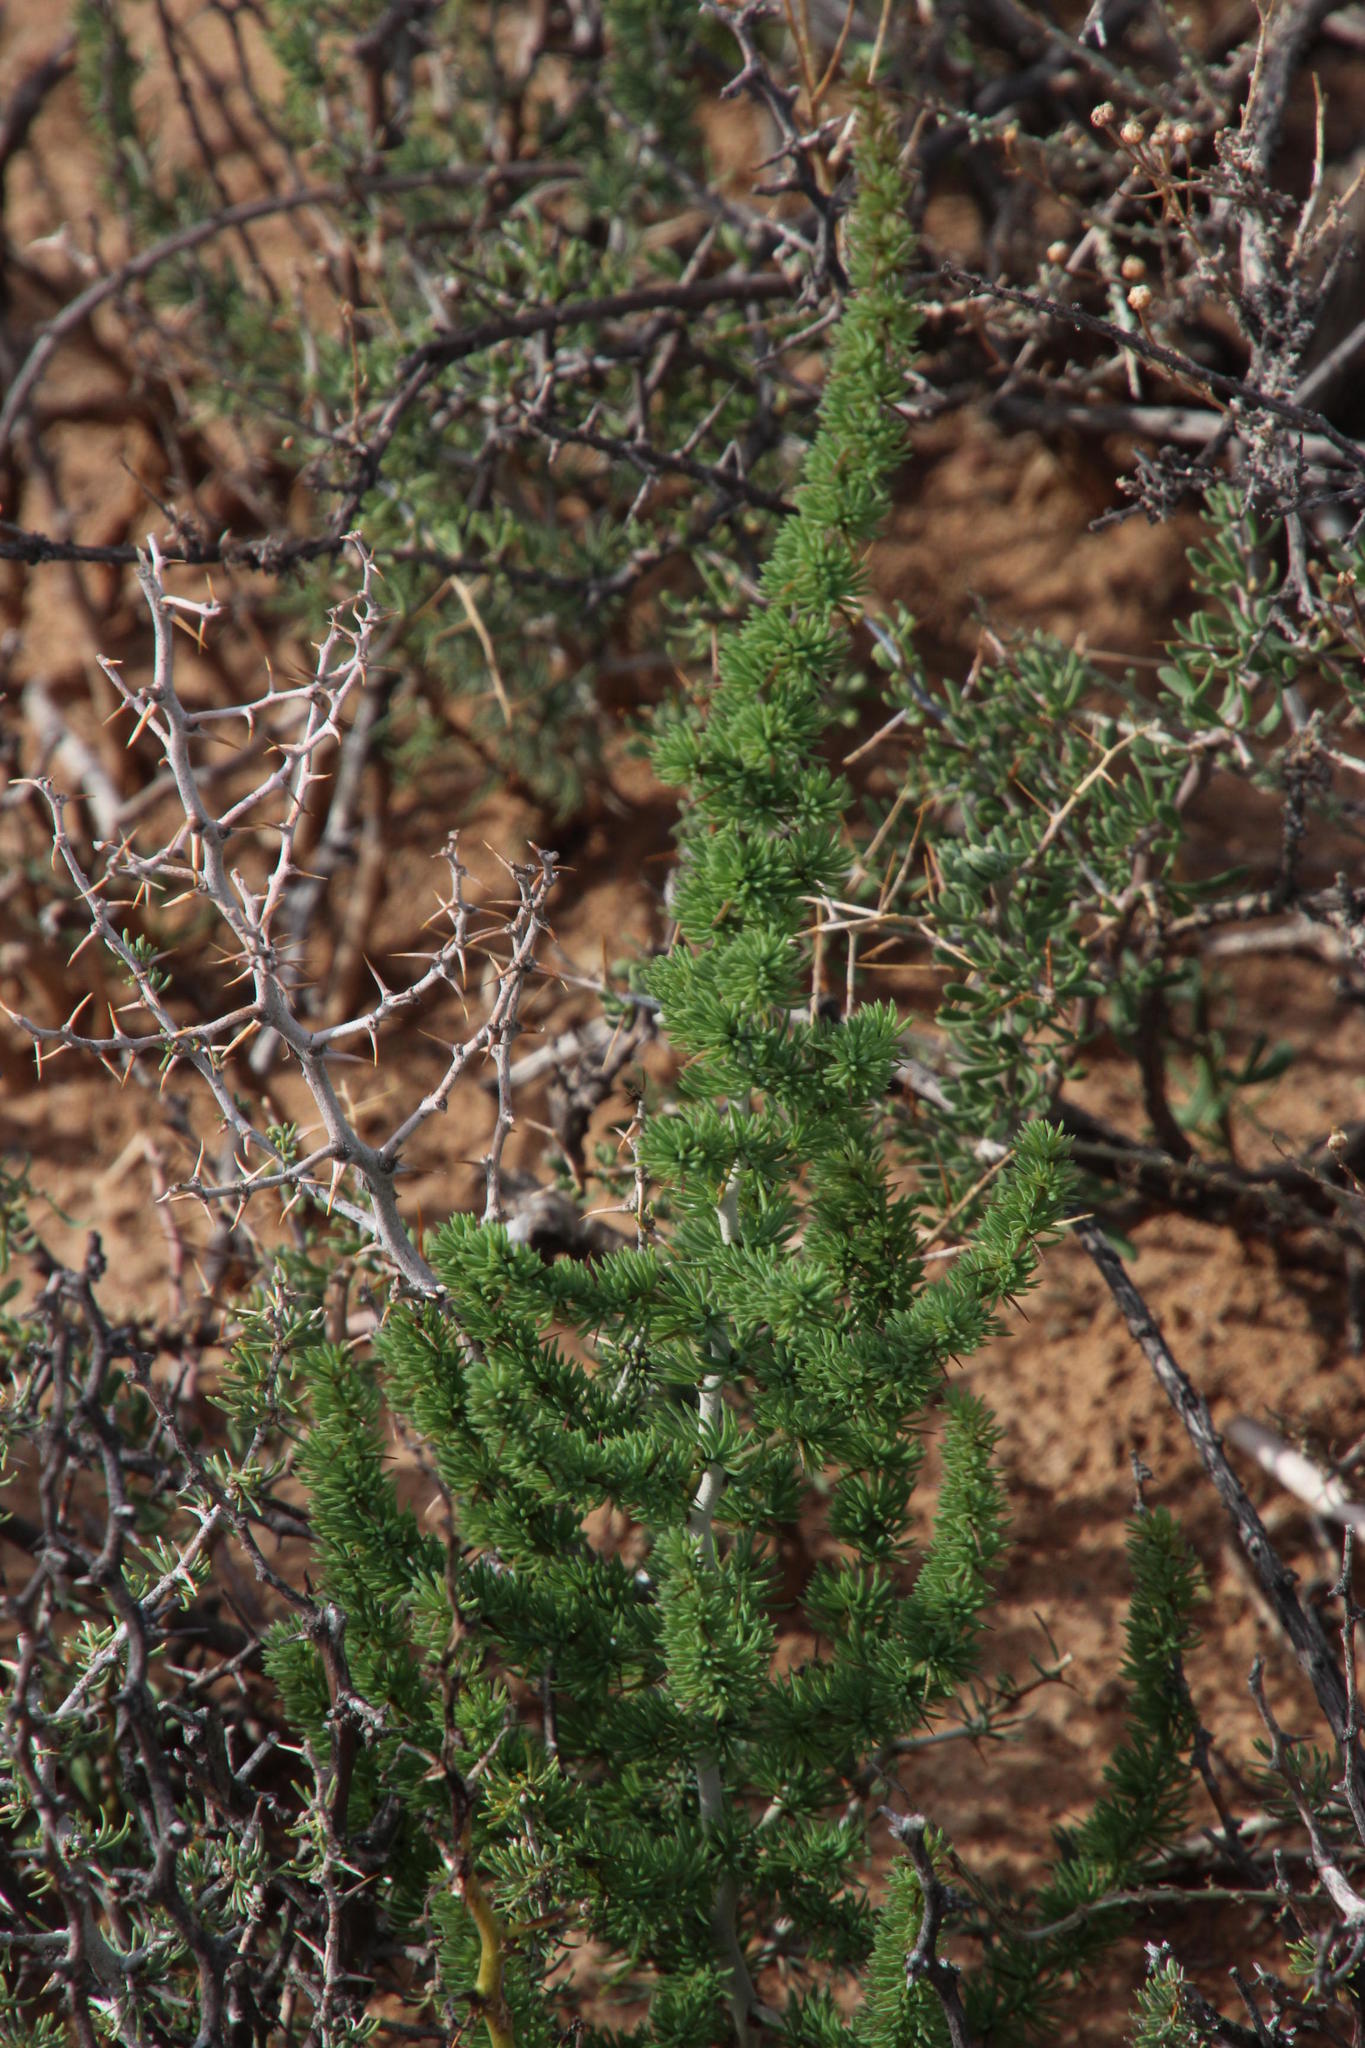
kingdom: Plantae
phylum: Tracheophyta
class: Liliopsida
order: Asparagales
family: Asparagaceae
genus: Asparagus
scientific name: Asparagus acocksii
